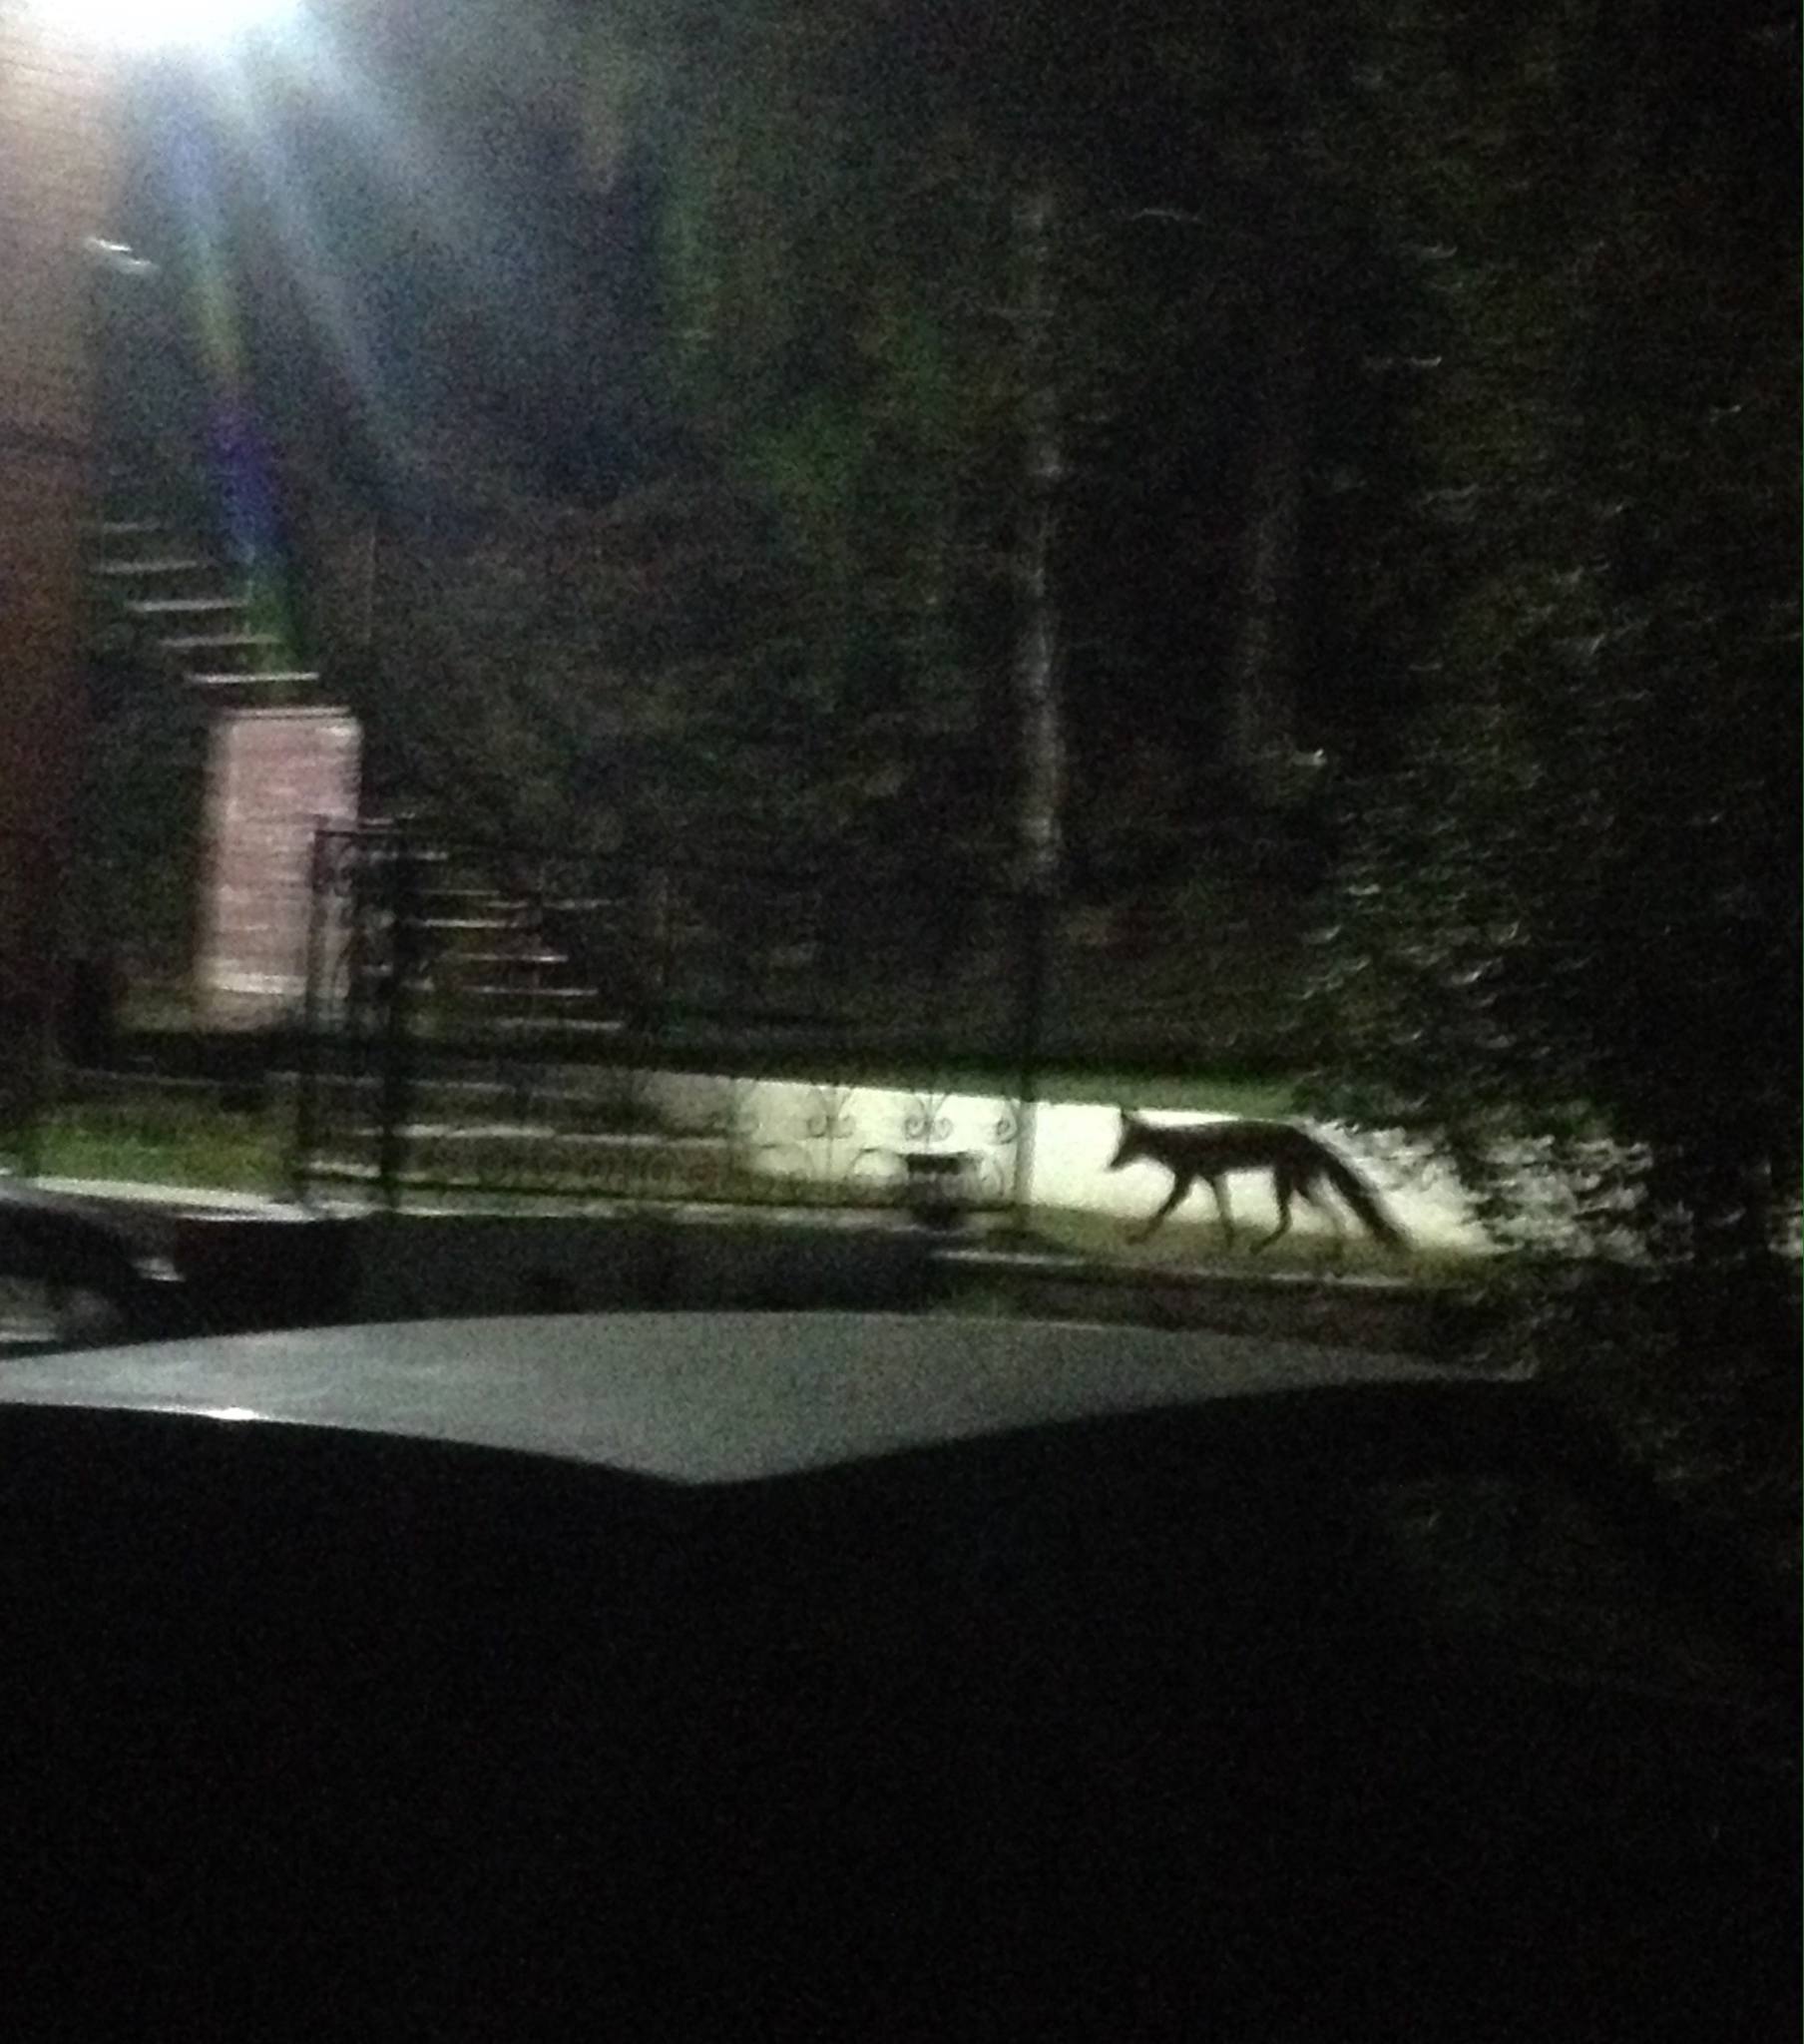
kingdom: Animalia
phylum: Chordata
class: Mammalia
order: Carnivora
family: Canidae
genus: Vulpes
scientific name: Vulpes vulpes
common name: Red fox
